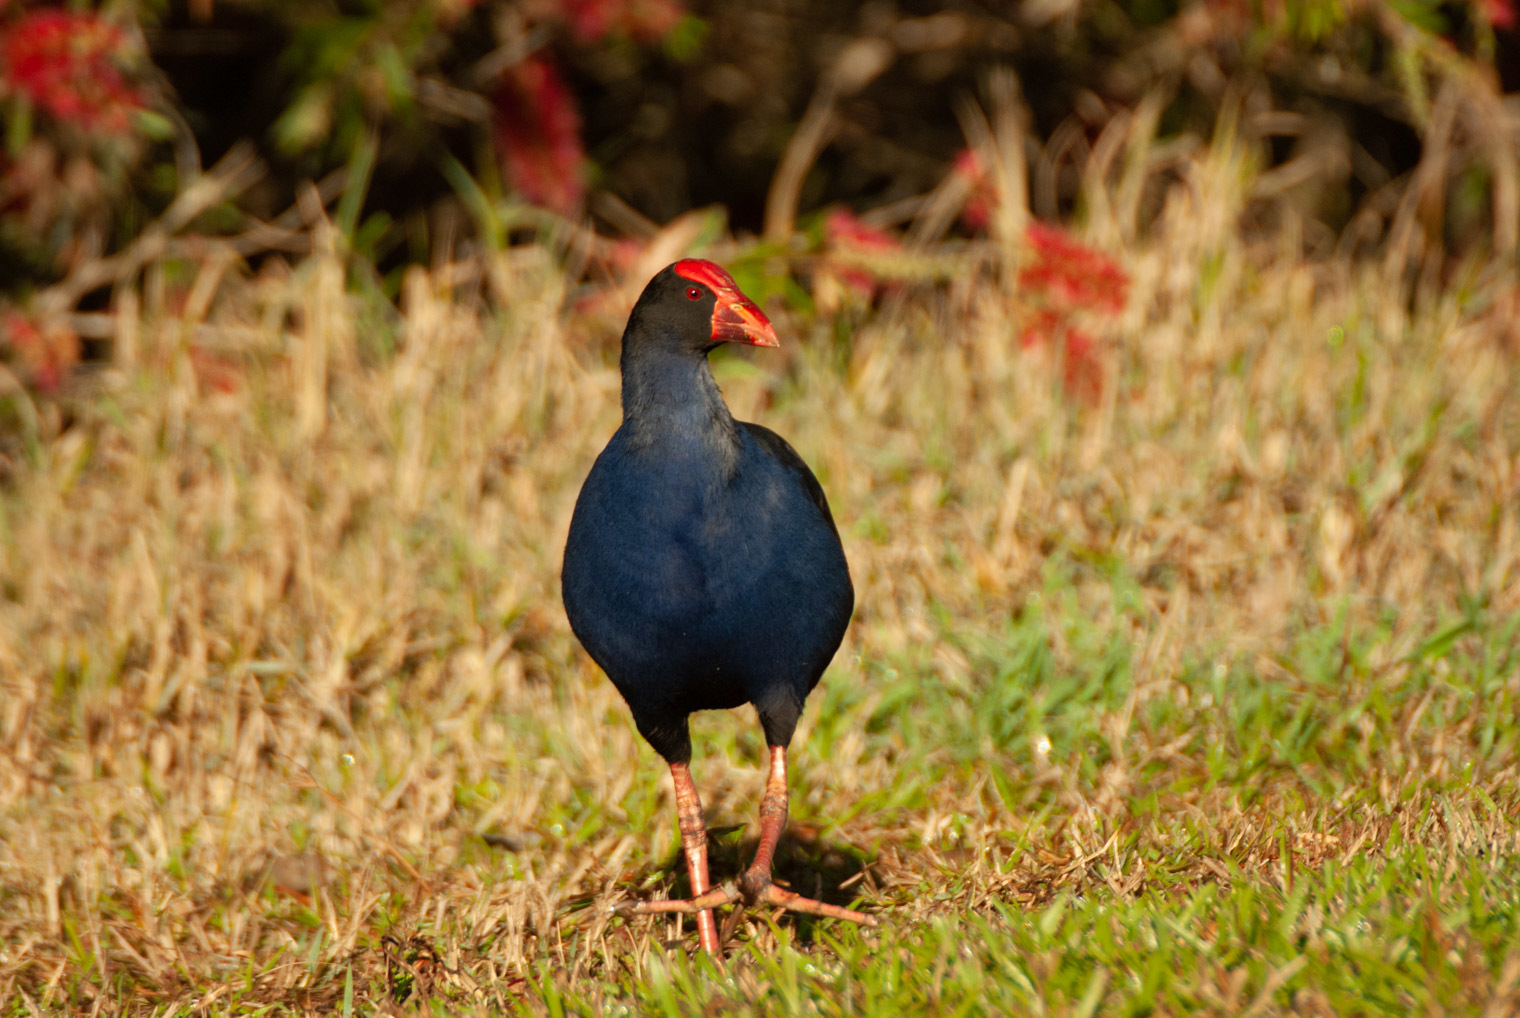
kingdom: Animalia
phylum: Chordata
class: Aves
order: Gruiformes
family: Rallidae
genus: Porphyrio
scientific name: Porphyrio melanotus
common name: Australasian swamphen
